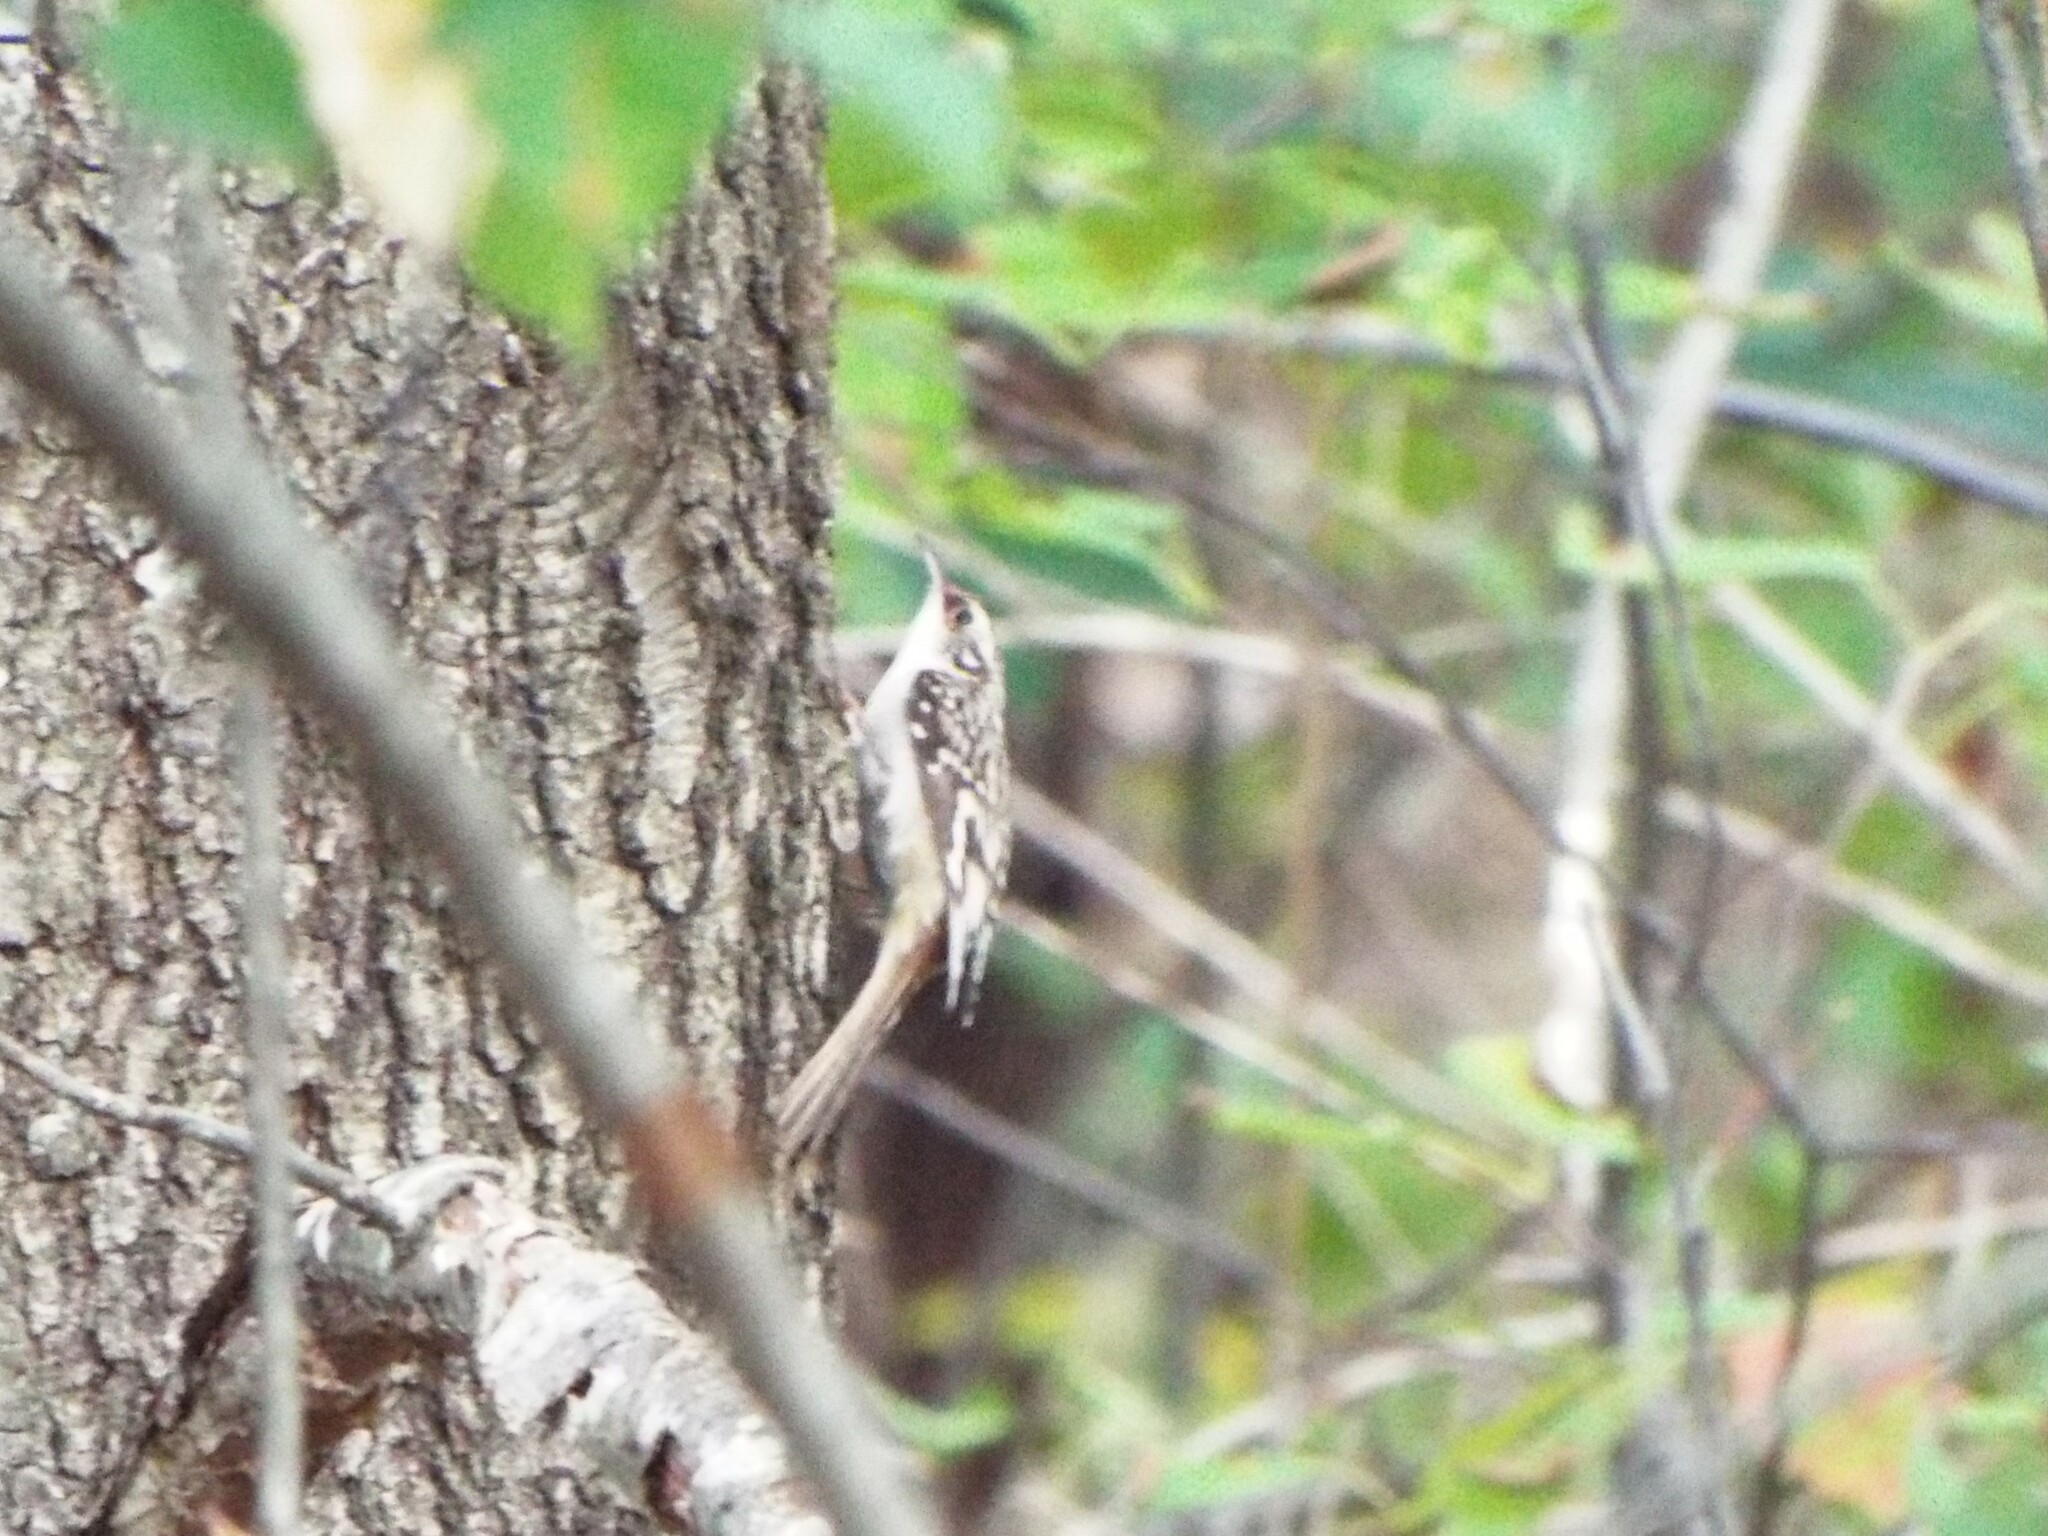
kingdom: Animalia
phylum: Chordata
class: Aves
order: Passeriformes
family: Certhiidae
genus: Certhia
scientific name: Certhia americana
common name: Brown creeper
